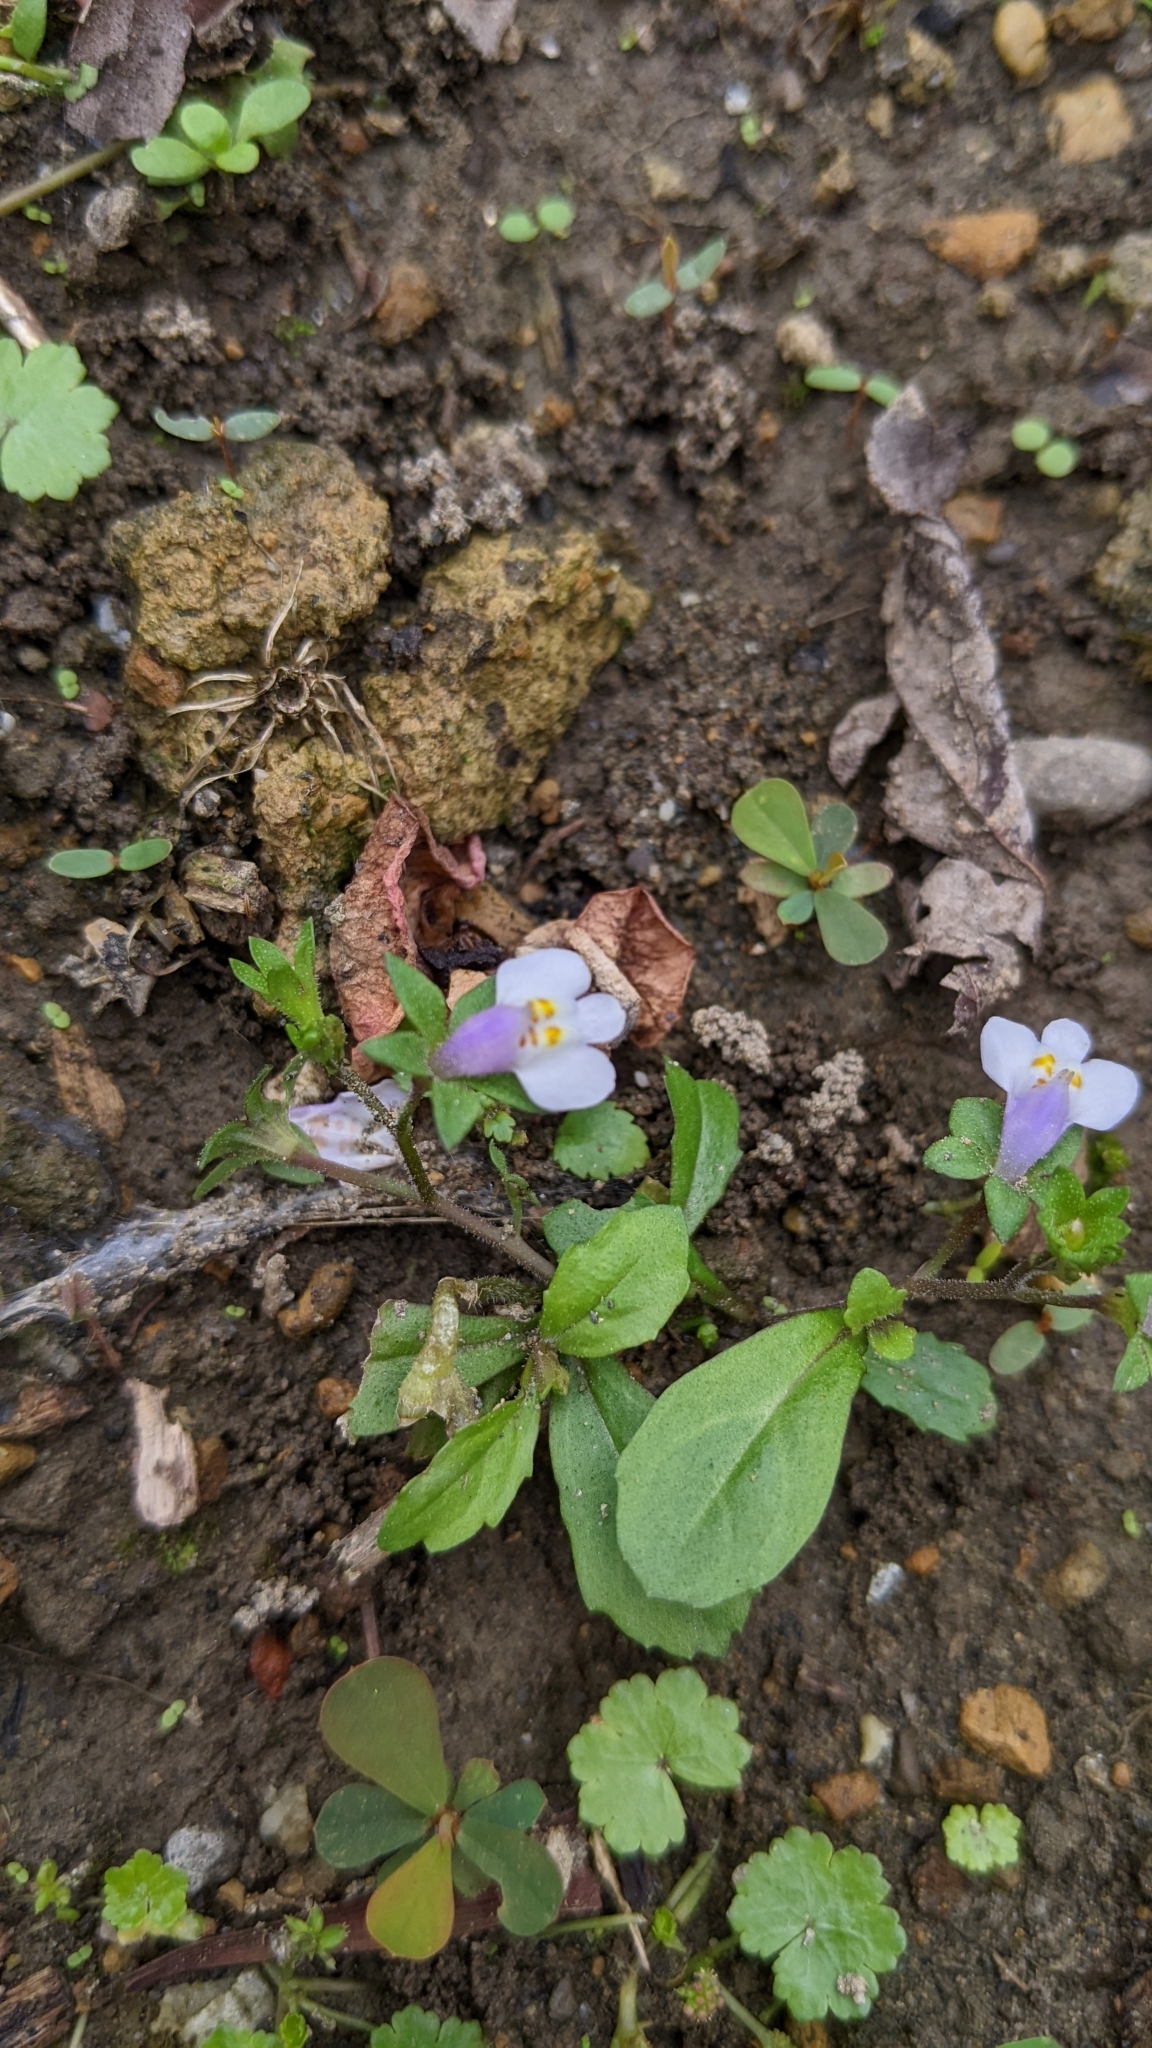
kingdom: Plantae
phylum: Tracheophyta
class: Magnoliopsida
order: Lamiales
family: Mazaceae
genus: Mazus
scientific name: Mazus pumilus
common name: Japanese mazus
